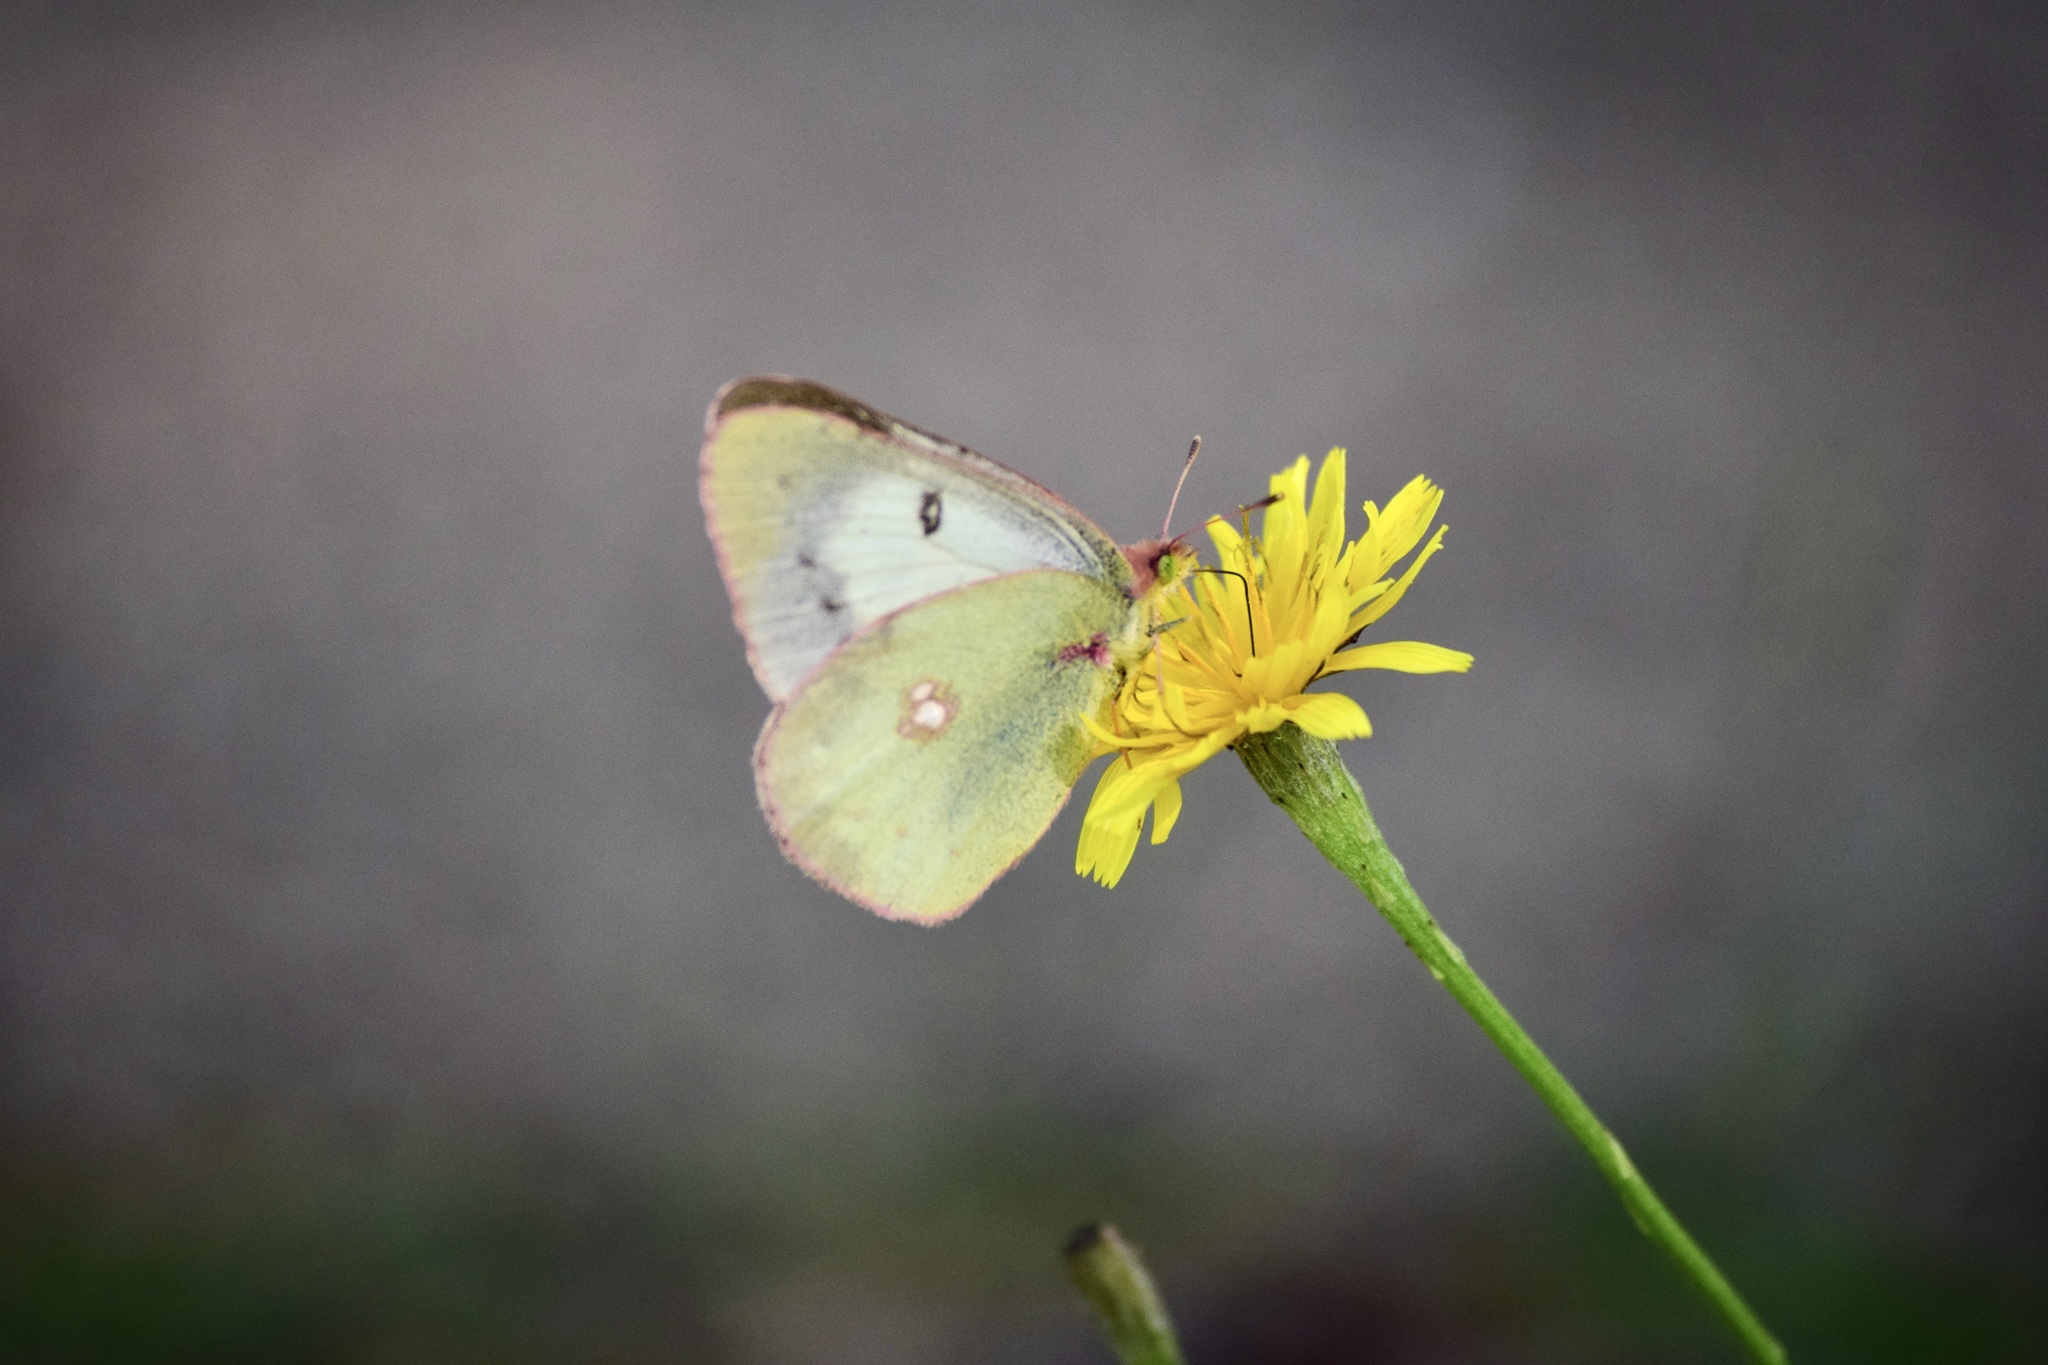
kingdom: Animalia
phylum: Arthropoda
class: Insecta
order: Lepidoptera
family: Pieridae
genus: Colias
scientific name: Colias philodice
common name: Clouded sulphur
